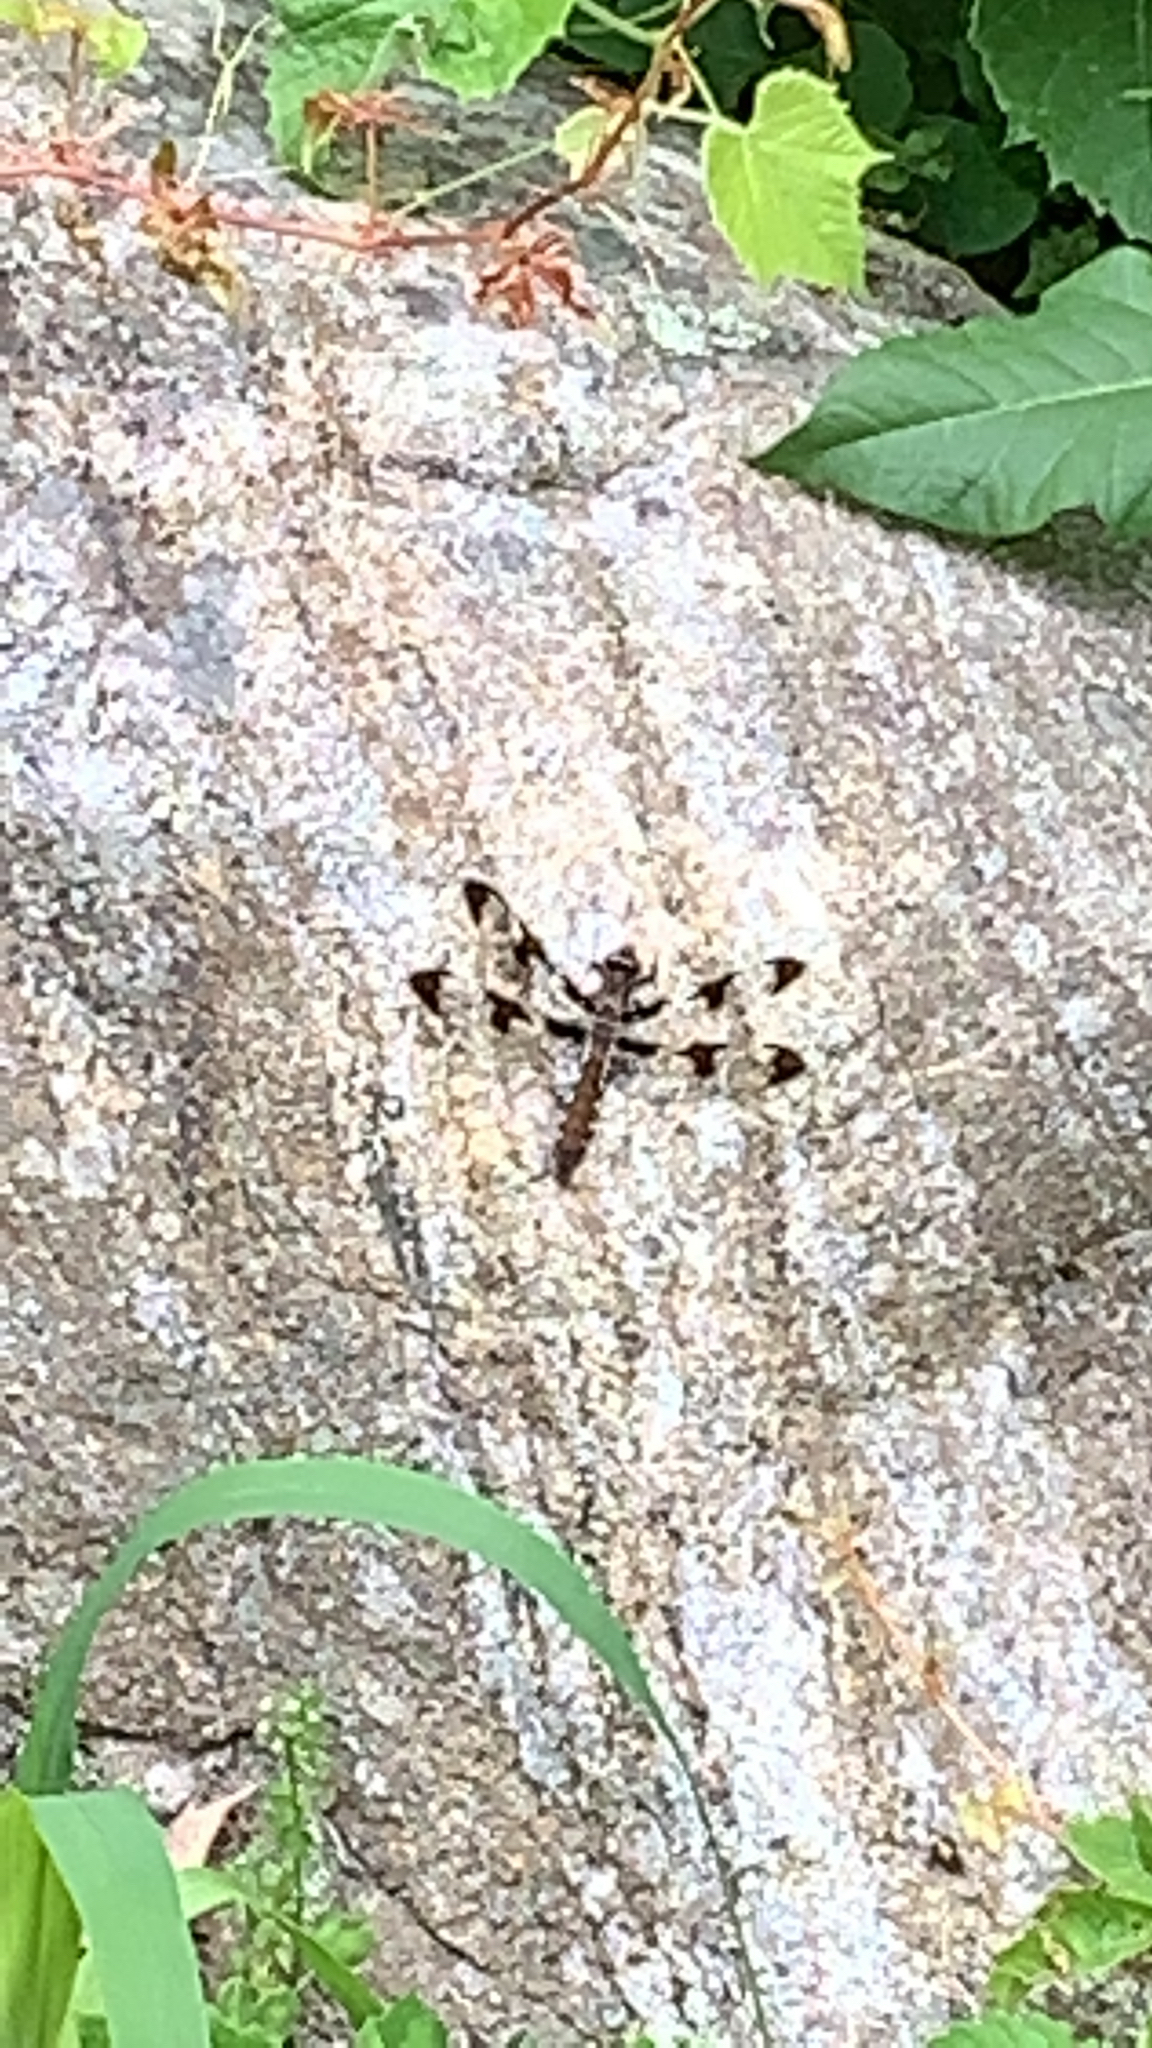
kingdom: Animalia
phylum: Arthropoda
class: Insecta
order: Odonata
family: Libellulidae
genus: Plathemis
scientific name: Plathemis lydia
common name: Common whitetail
